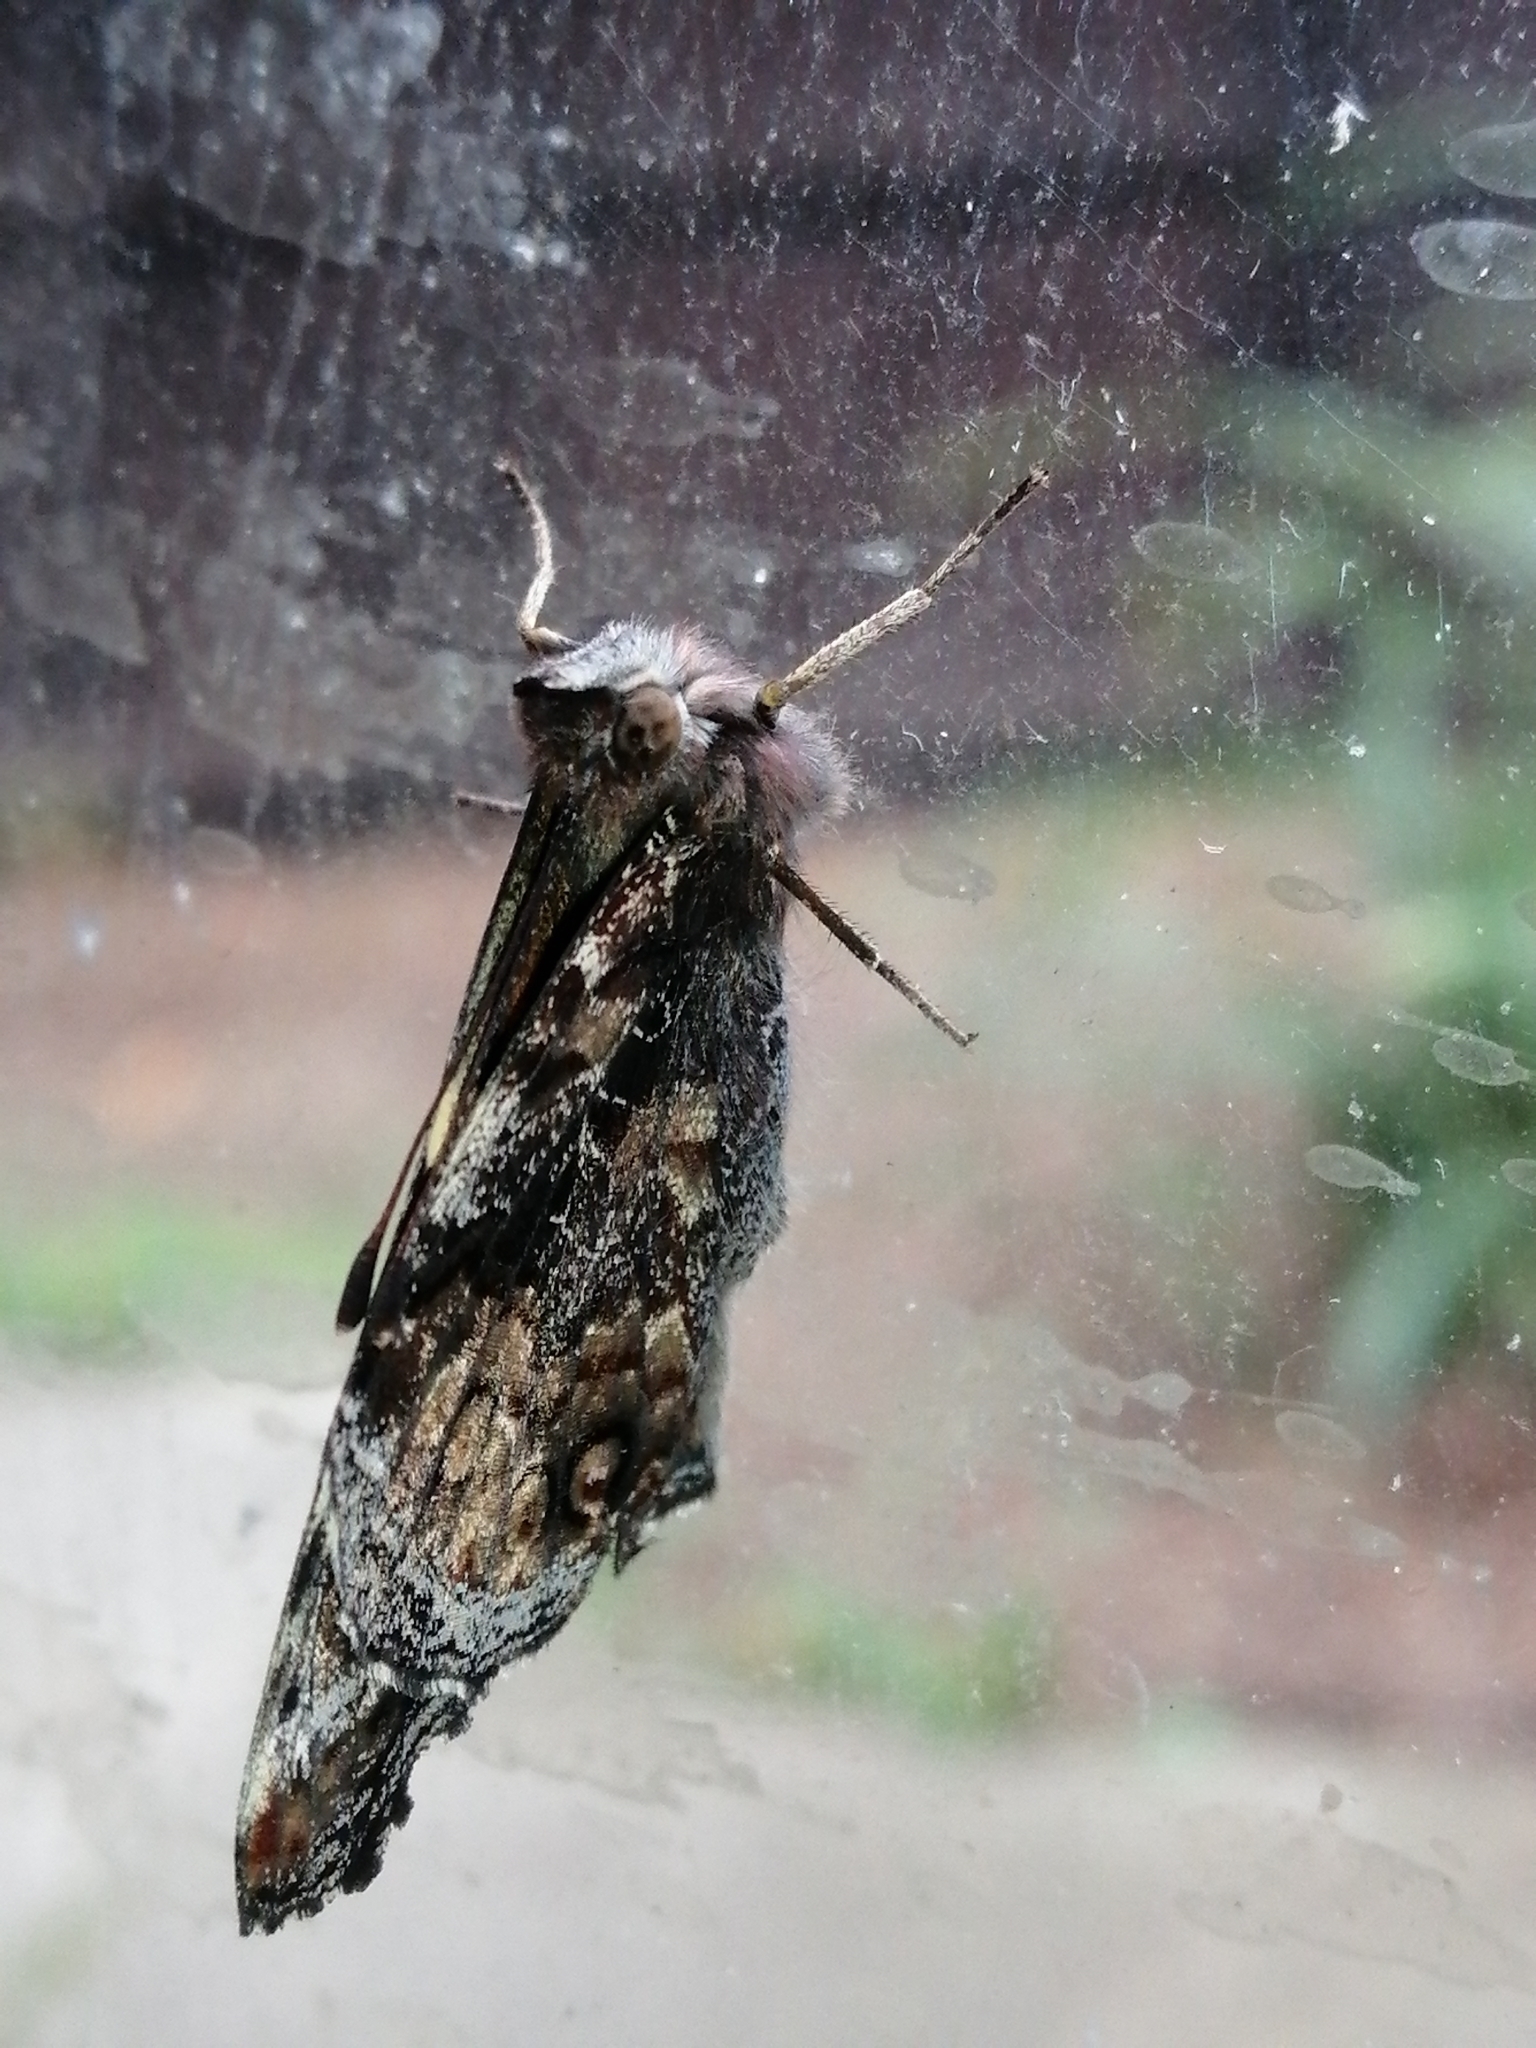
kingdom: Animalia
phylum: Arthropoda
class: Insecta
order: Lepidoptera
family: Nymphalidae
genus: Vanessa
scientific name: Vanessa itea
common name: Yellow admiral
